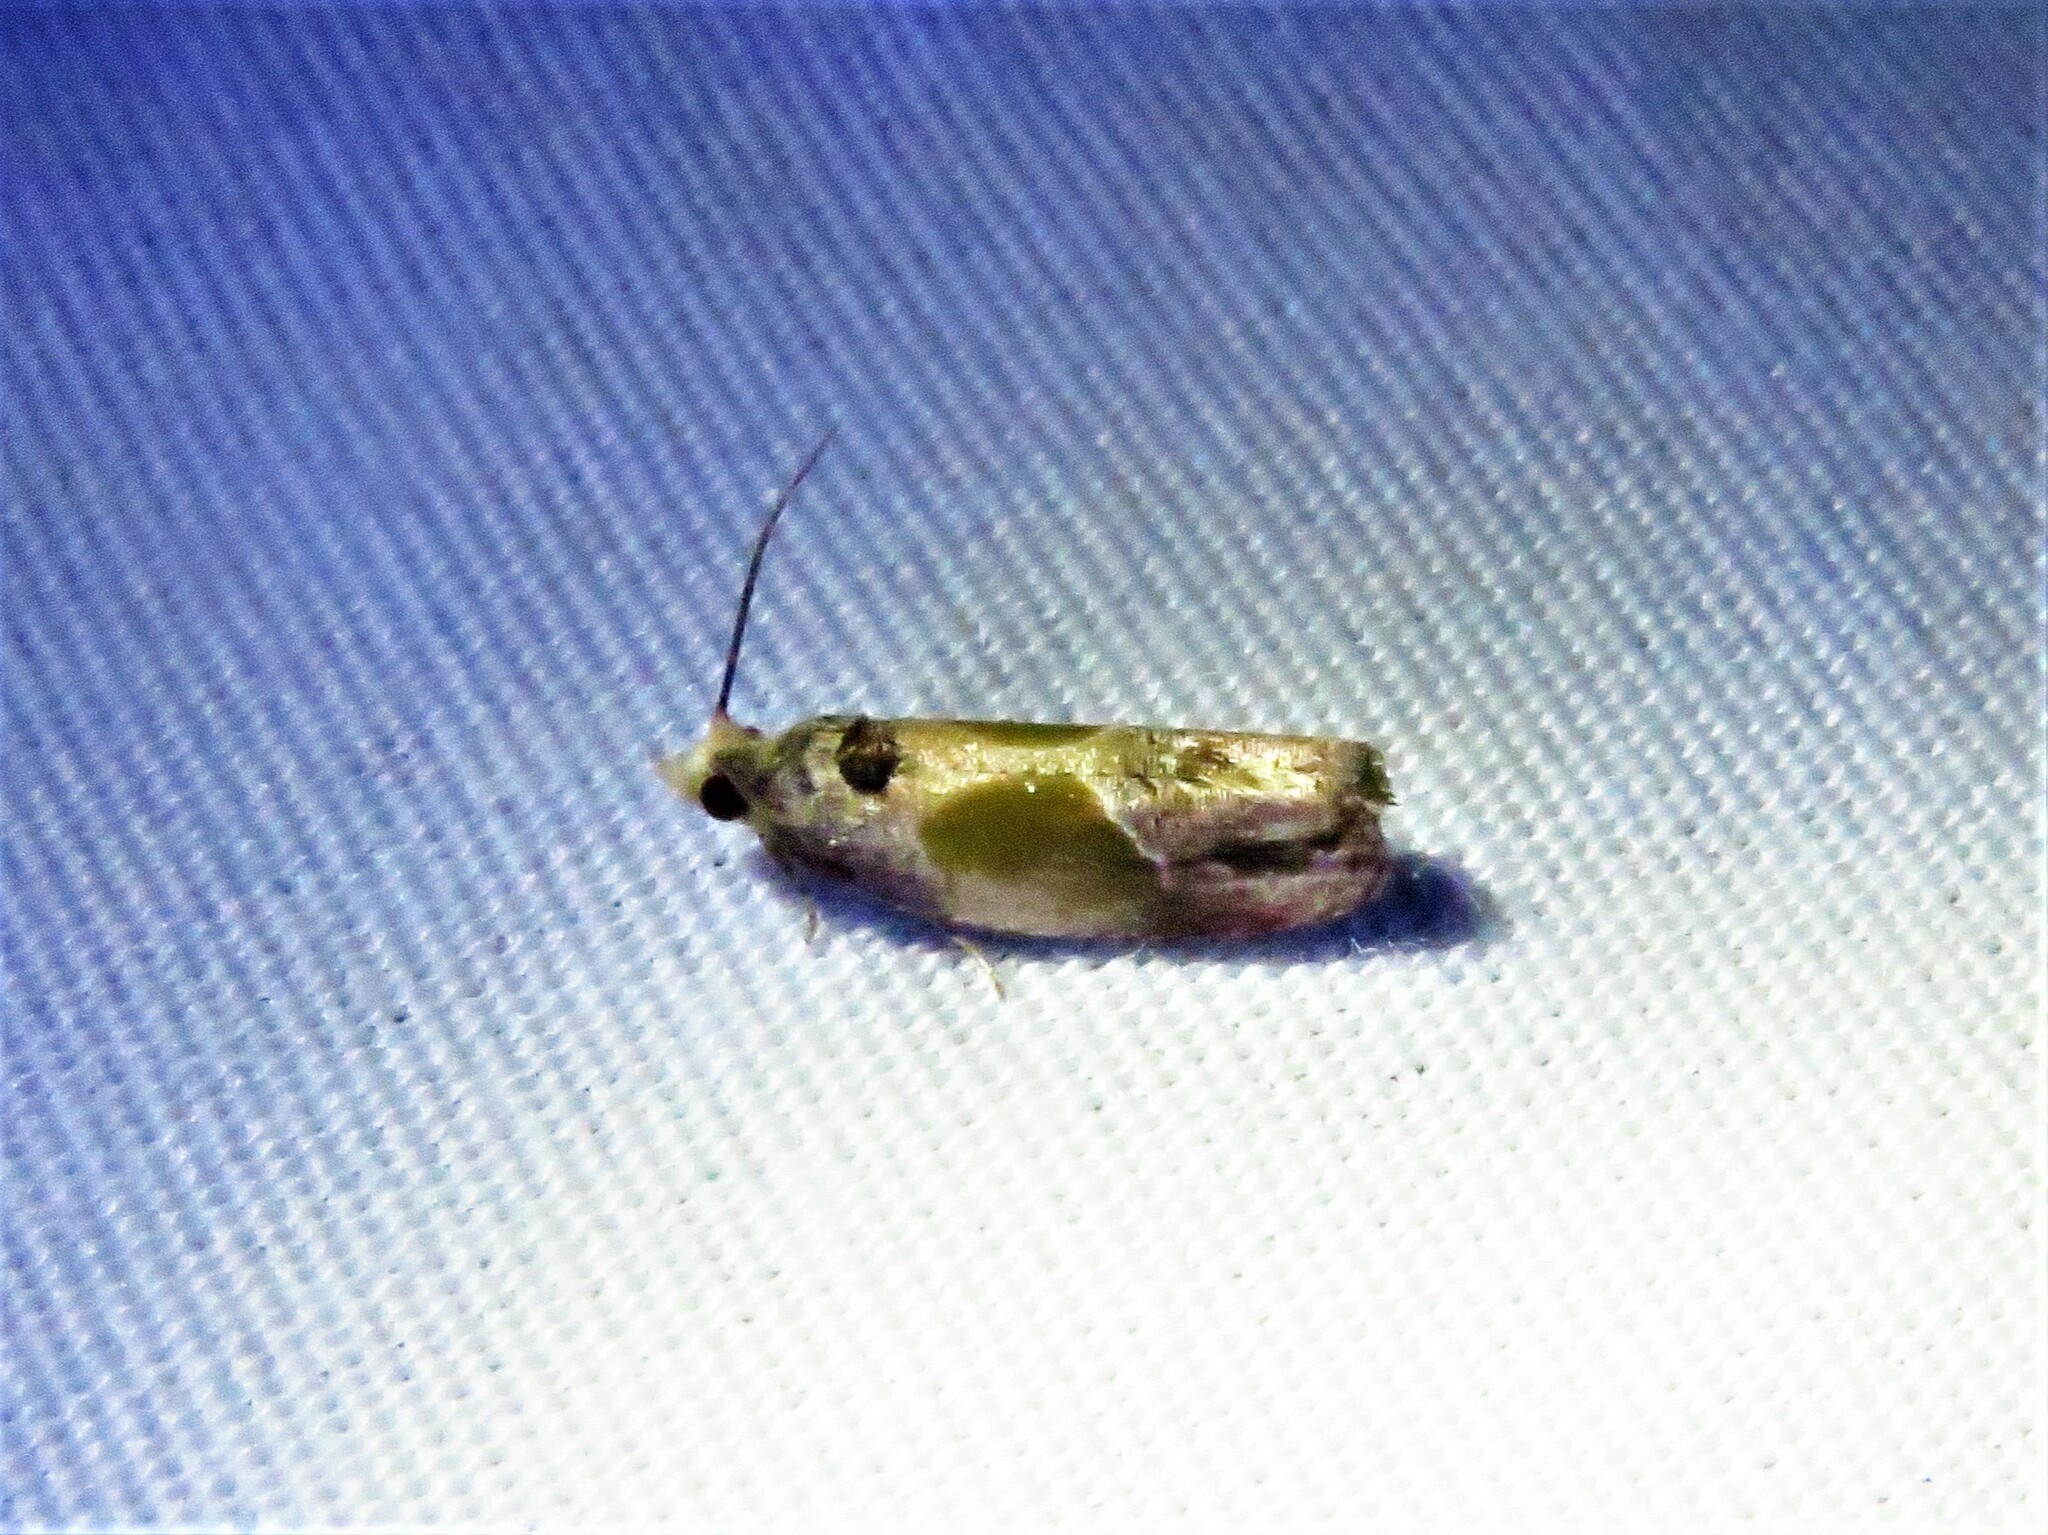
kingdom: Animalia
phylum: Arthropoda
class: Insecta
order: Lepidoptera
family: Tortricidae
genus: Eumarozia
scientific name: Eumarozia malachitana
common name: Sculptured moth
